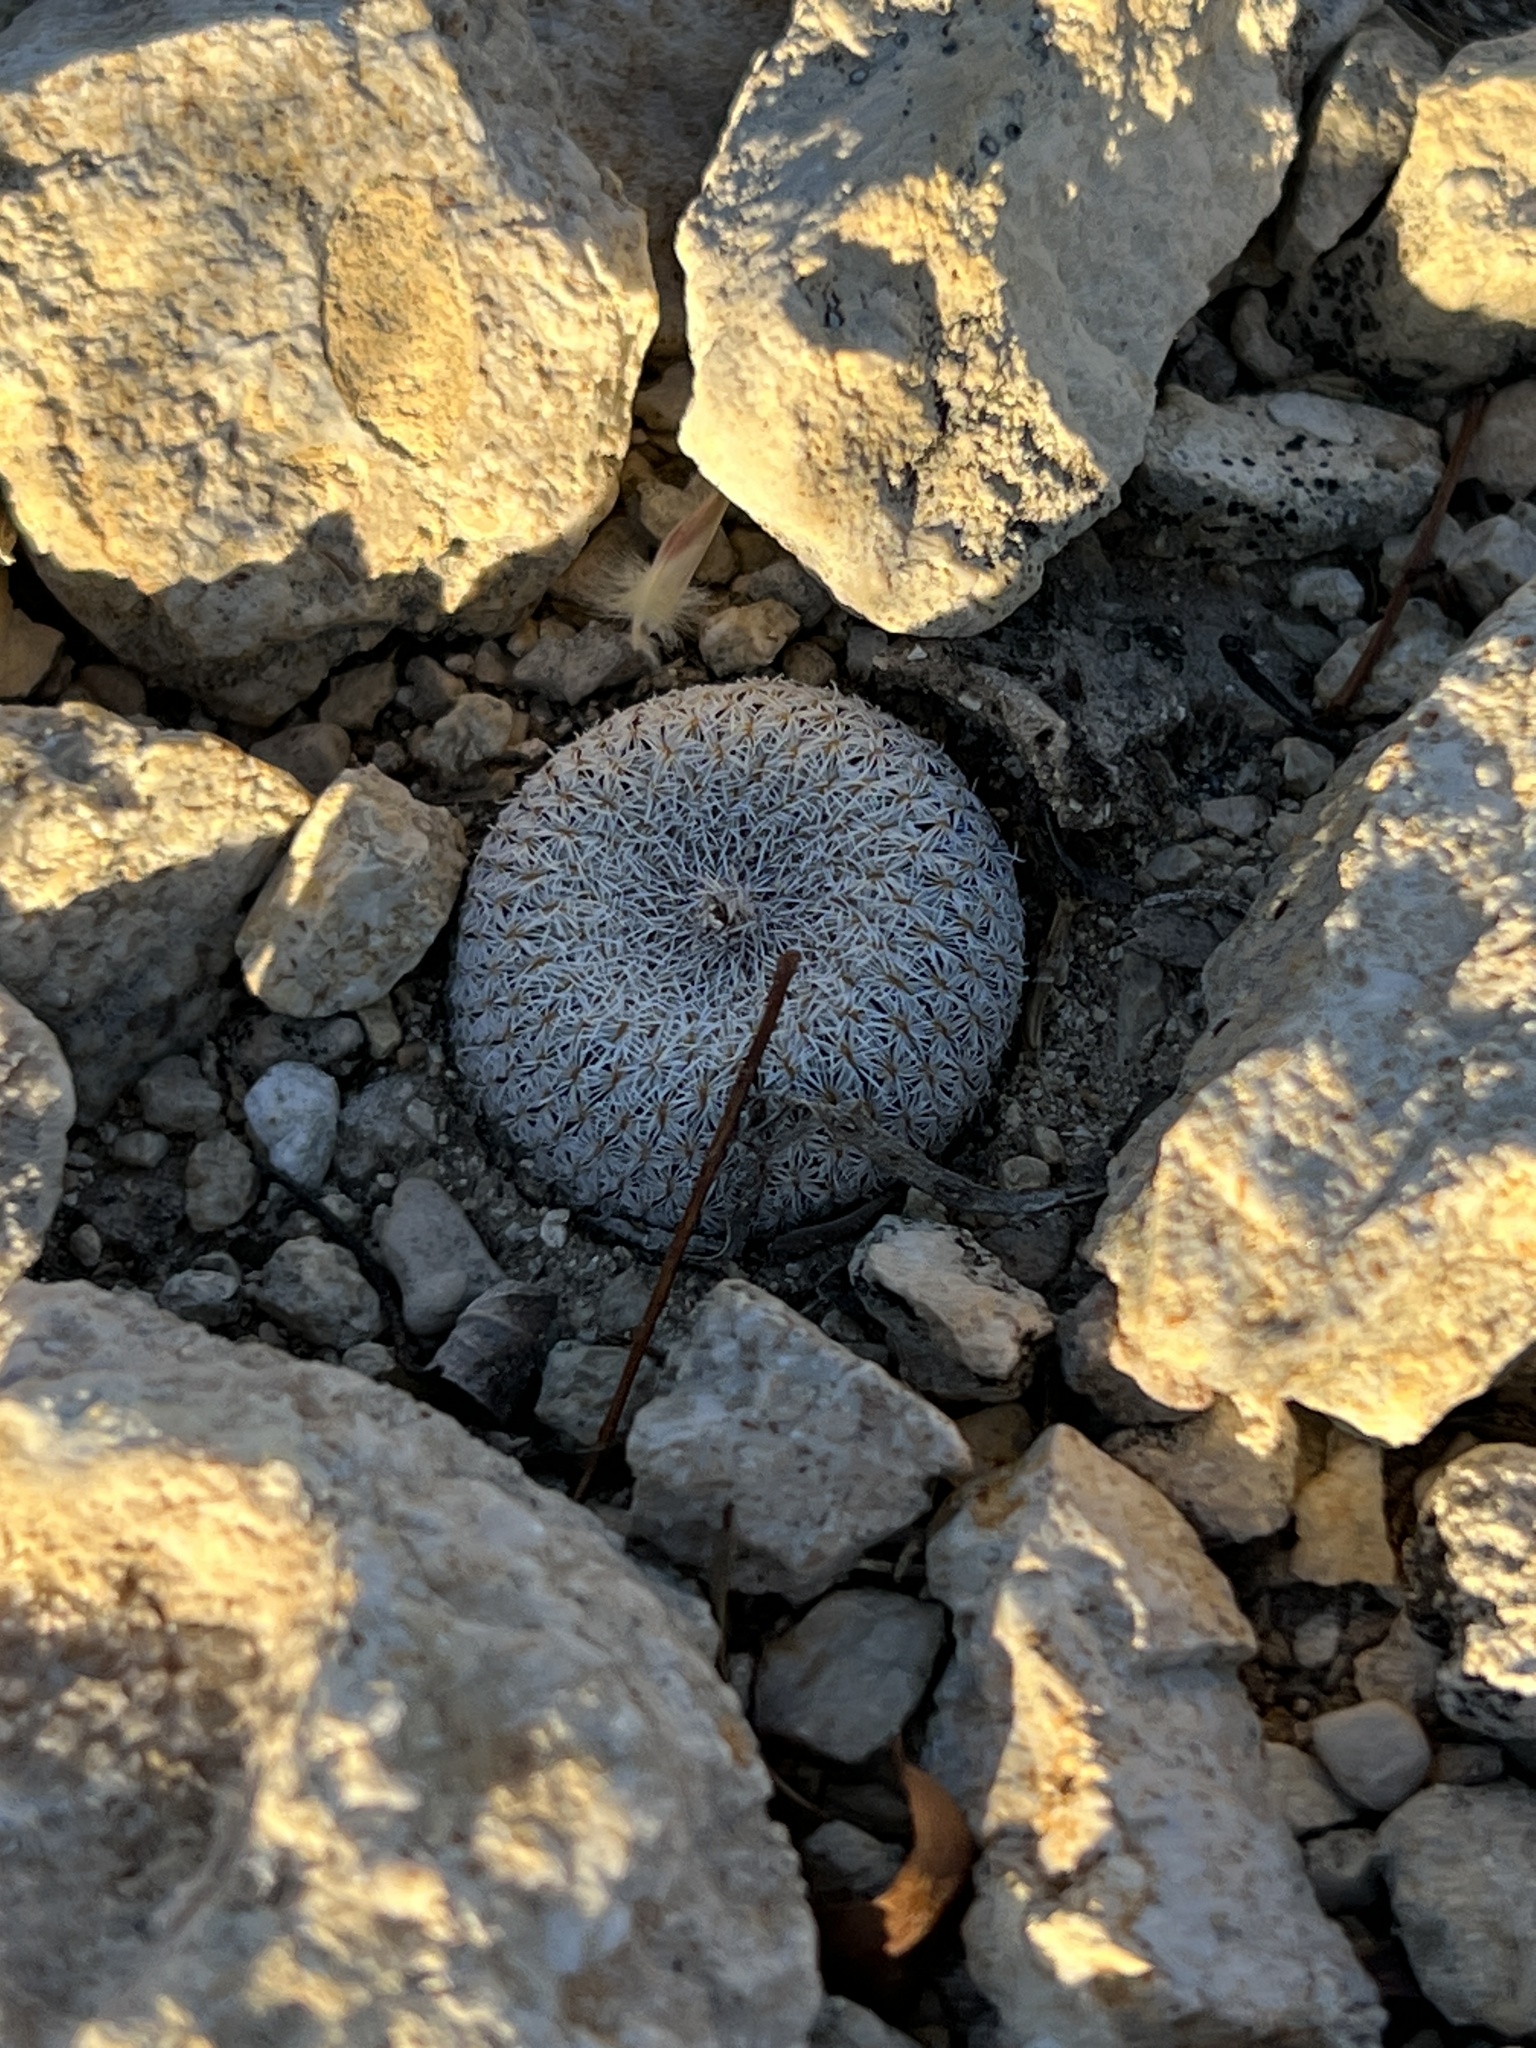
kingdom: Plantae
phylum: Tracheophyta
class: Magnoliopsida
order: Caryophyllales
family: Cactaceae
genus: Epithelantha
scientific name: Epithelantha micromeris
